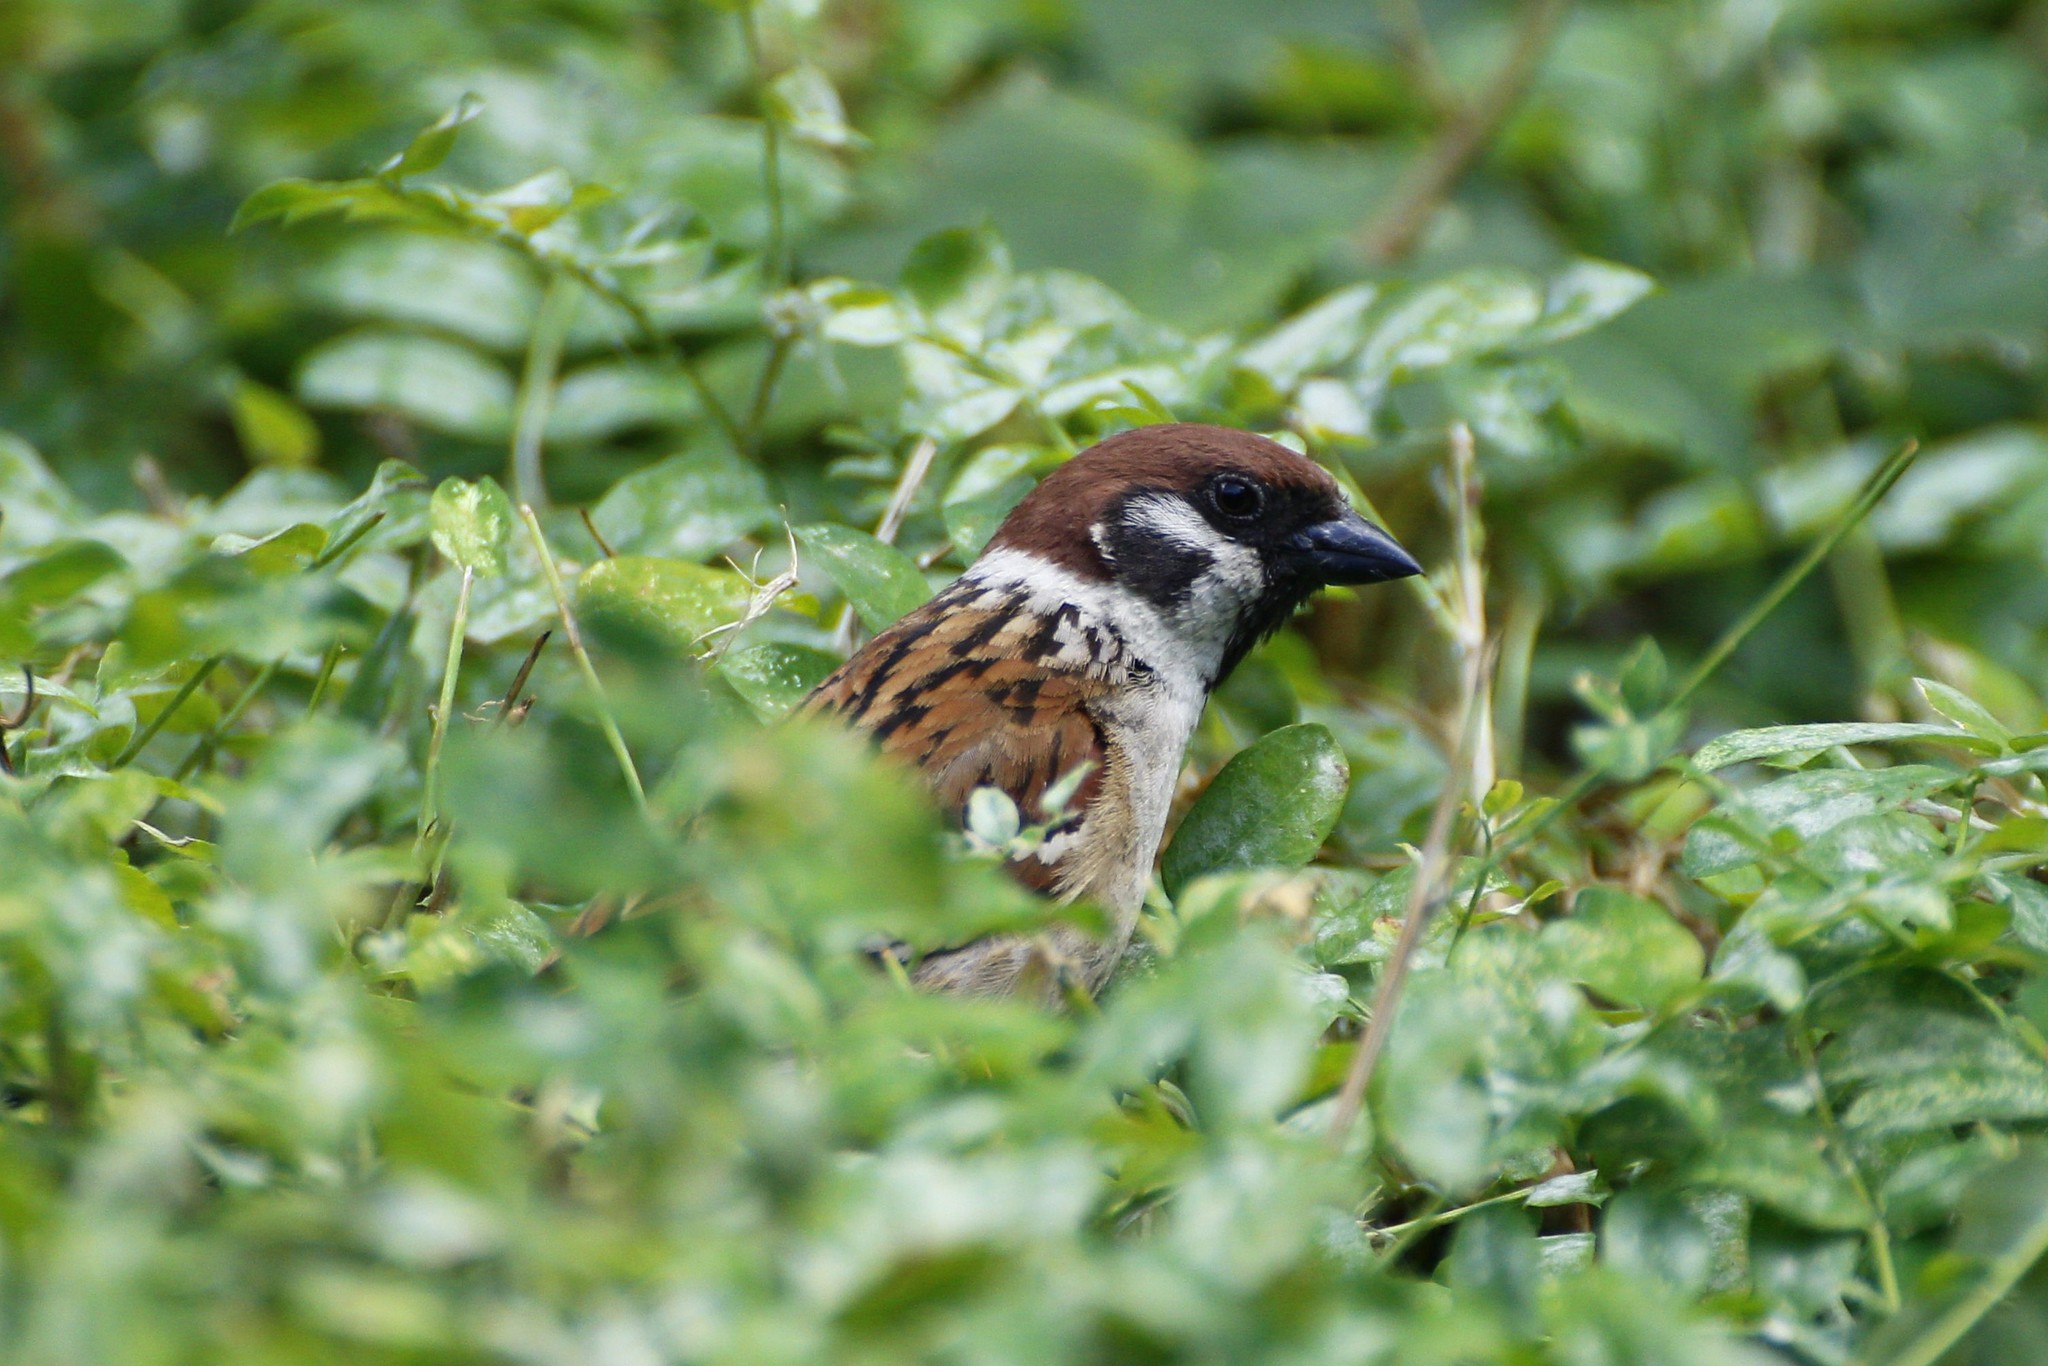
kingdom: Animalia
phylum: Chordata
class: Aves
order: Passeriformes
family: Passeridae
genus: Passer
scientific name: Passer montanus
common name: Eurasian tree sparrow
